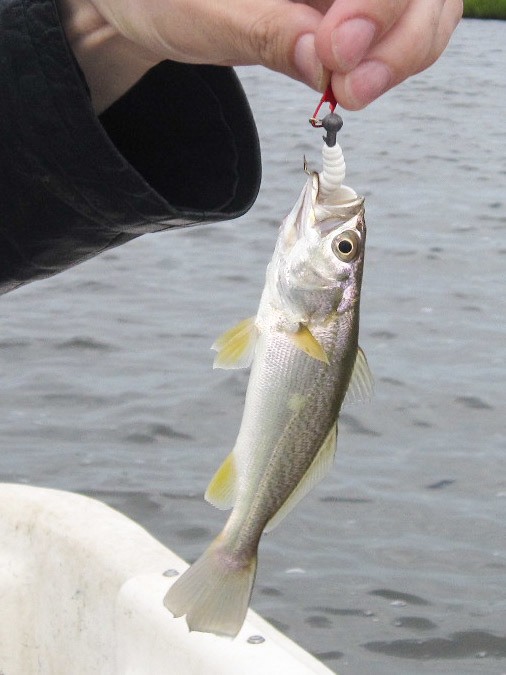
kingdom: Animalia
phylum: Chordata
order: Perciformes
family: Sciaenidae
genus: Cynoscion
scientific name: Cynoscion regalis
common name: Squeteague
